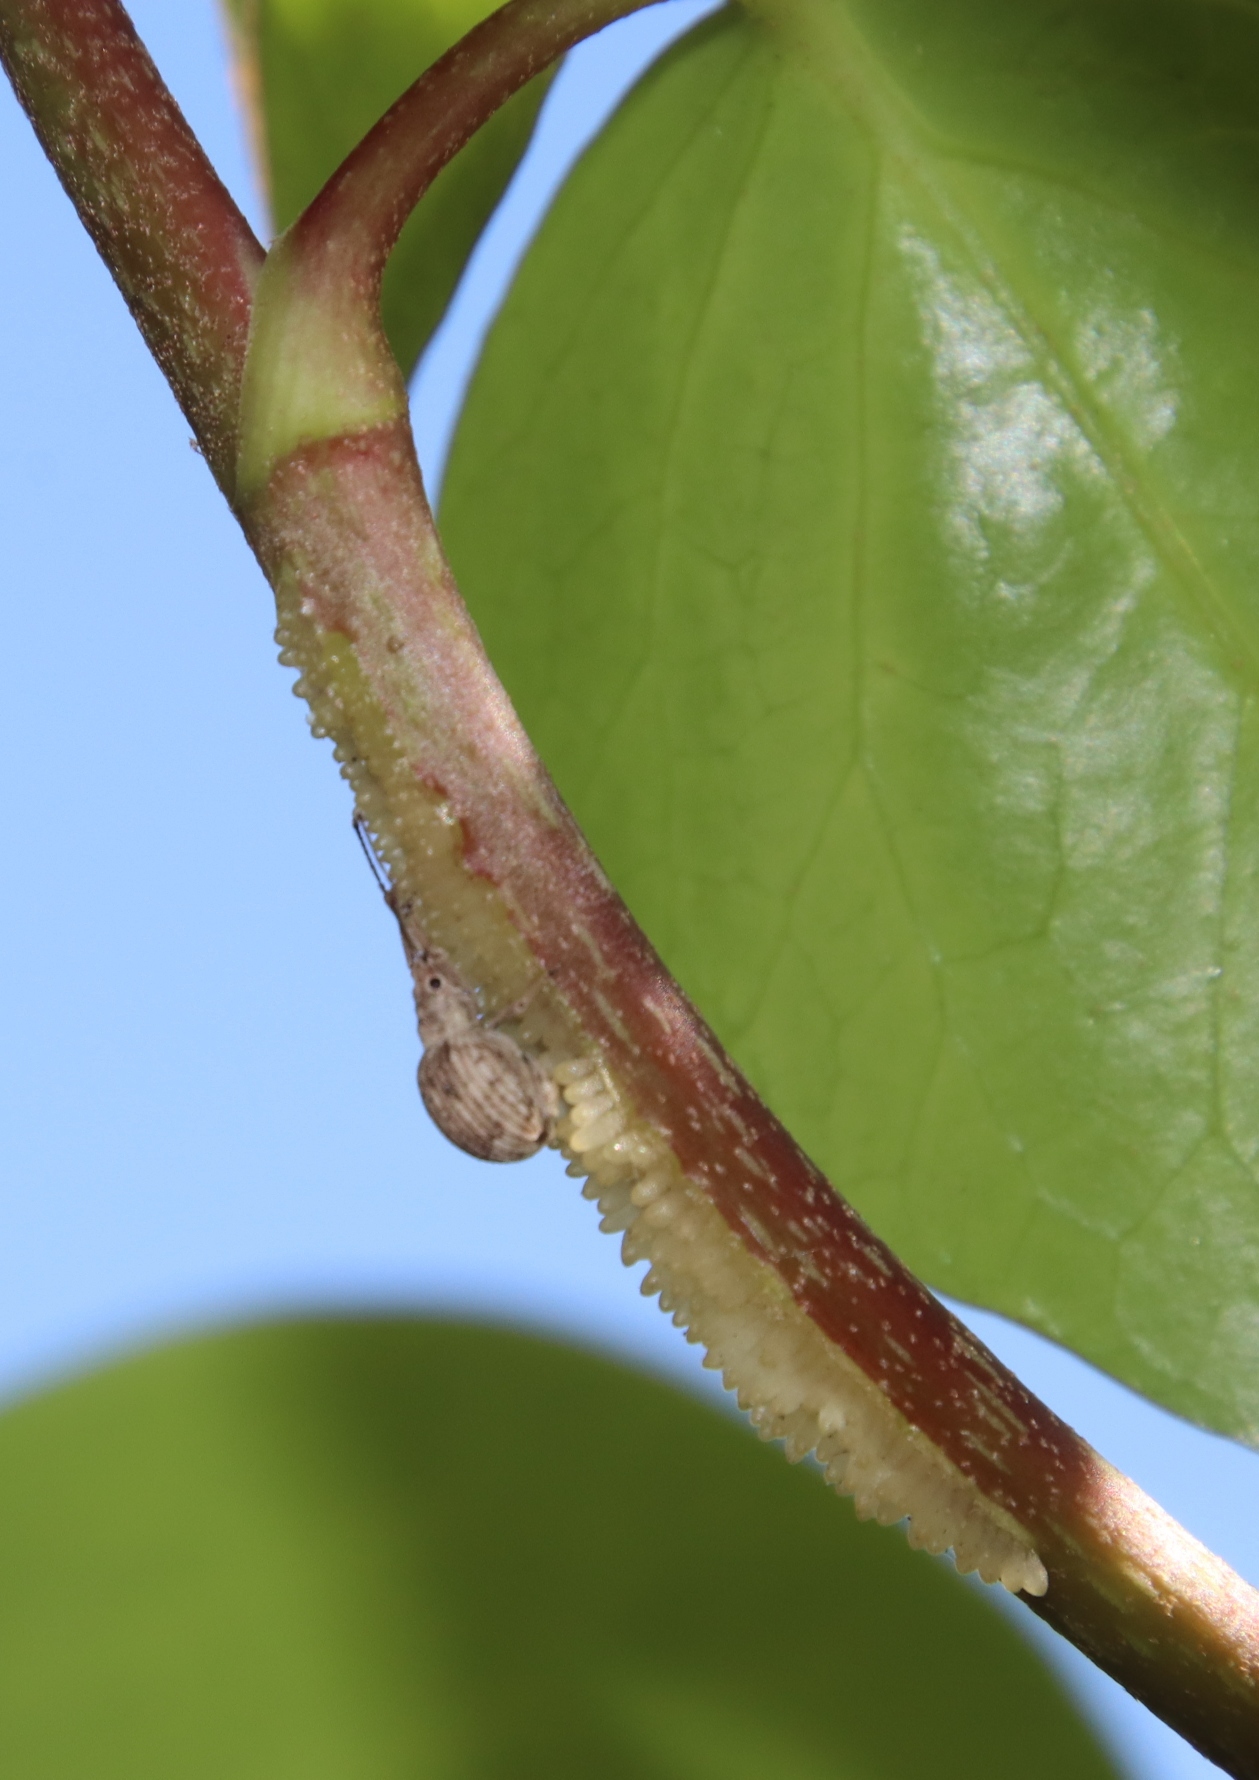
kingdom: Animalia
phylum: Arthropoda
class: Insecta
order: Coleoptera
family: Curculionidae
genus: Ellimenistes
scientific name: Ellimenistes laesicollis
